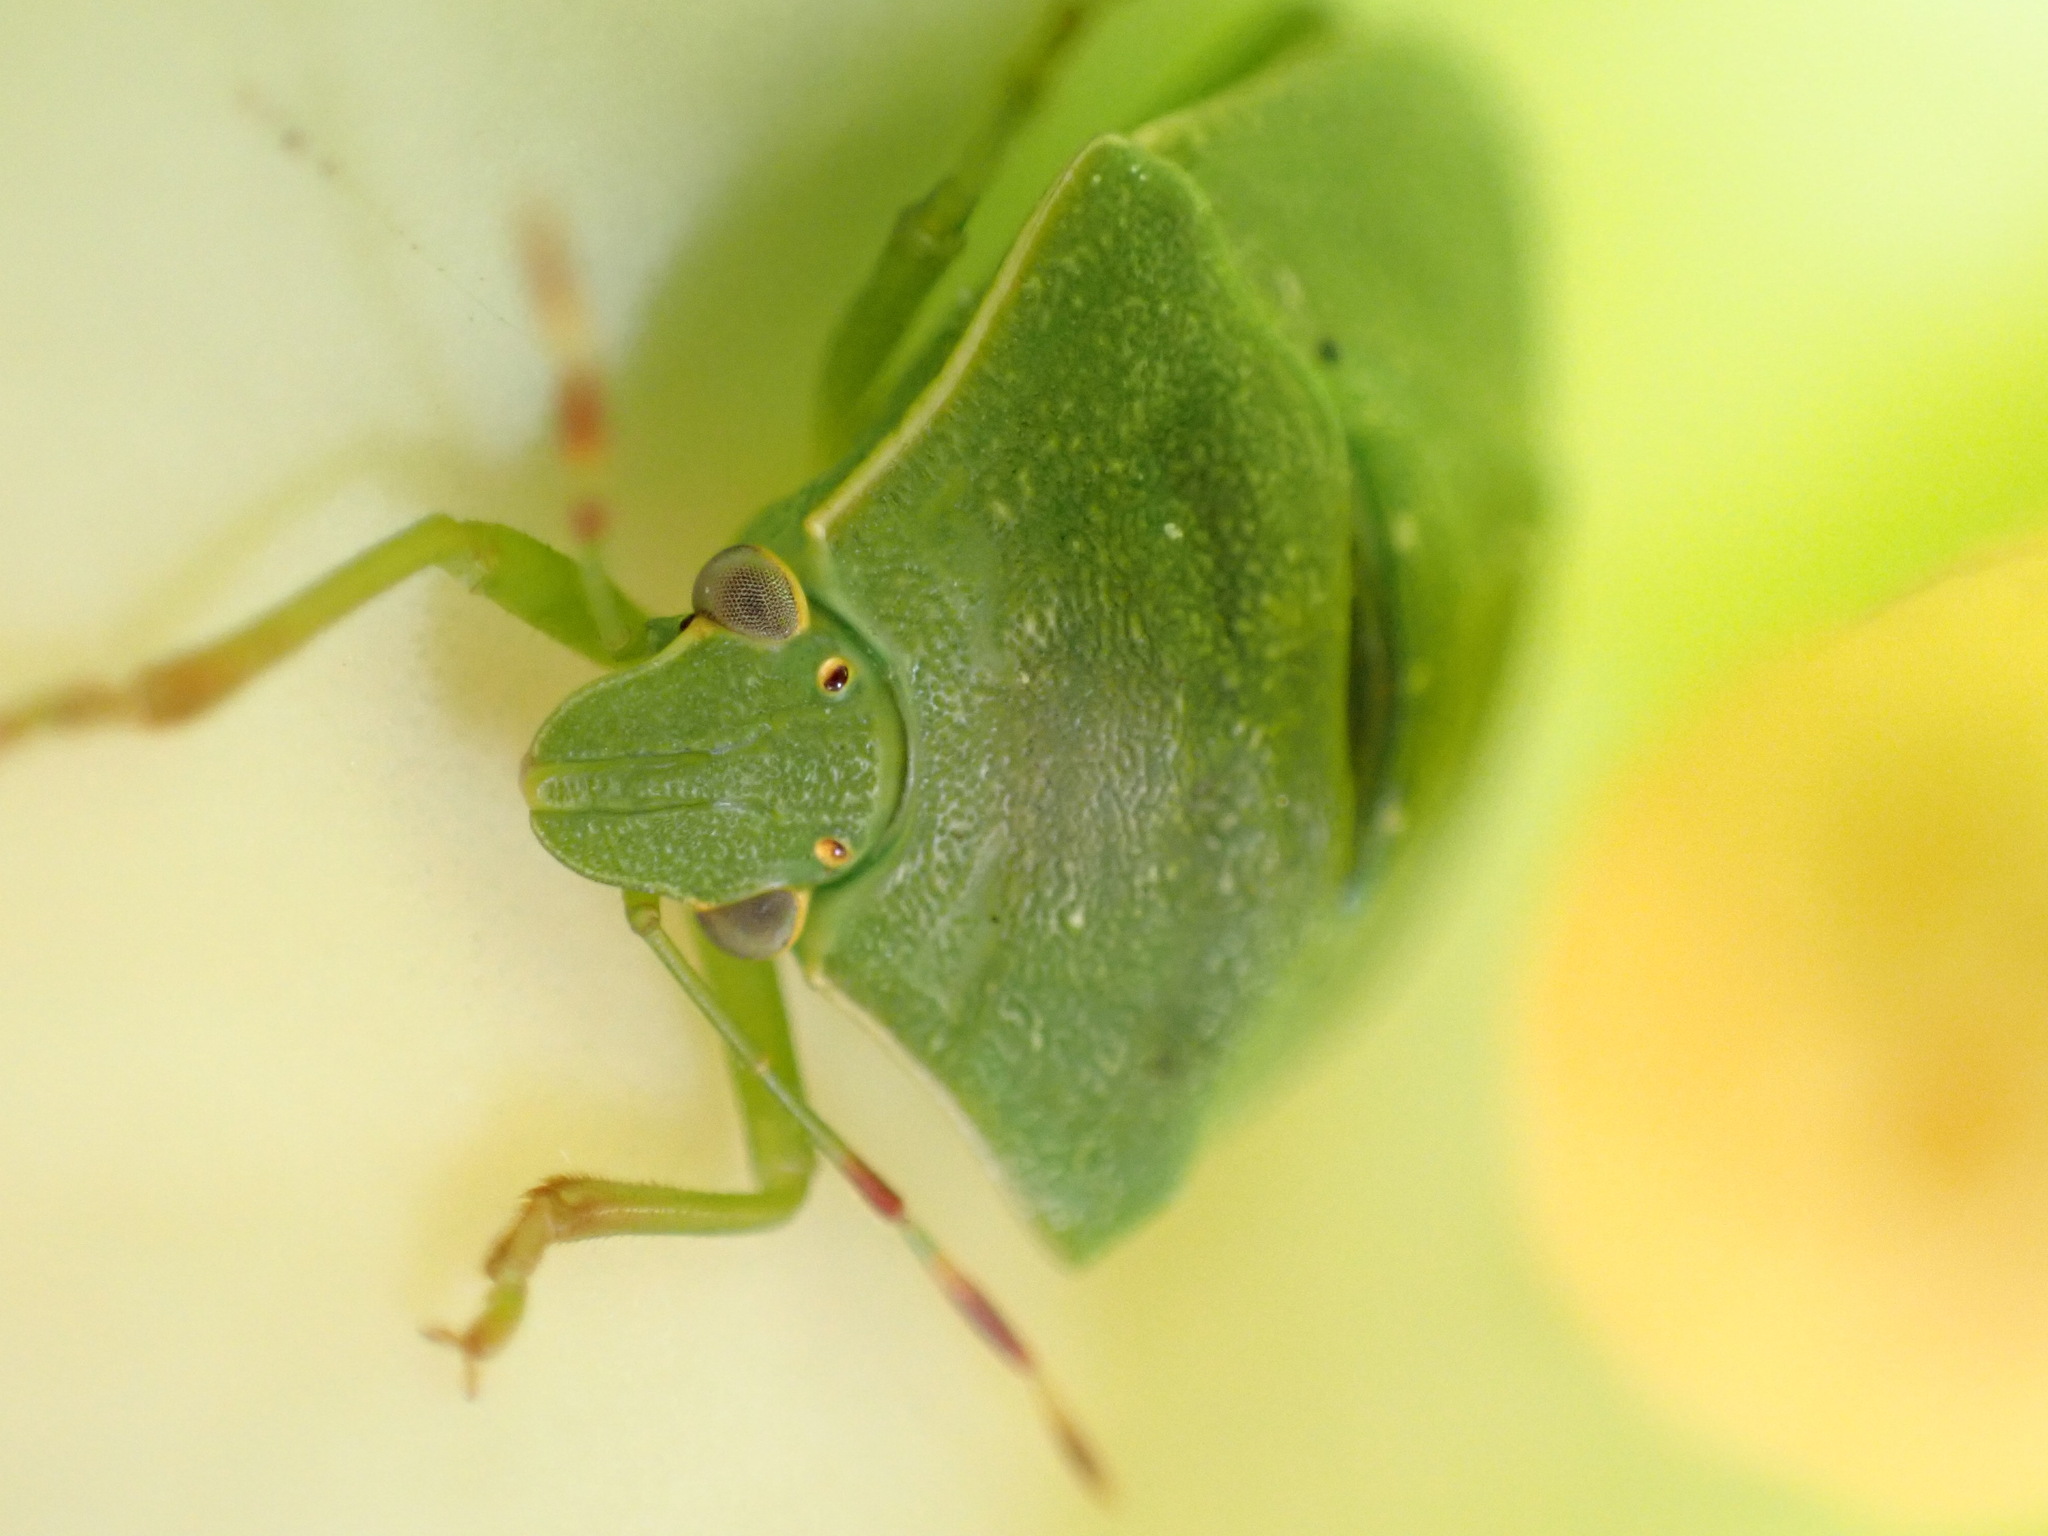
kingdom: Animalia
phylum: Arthropoda
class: Insecta
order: Hemiptera
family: Pentatomidae
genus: Nezara
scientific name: Nezara viridula
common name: Southern green stink bug
